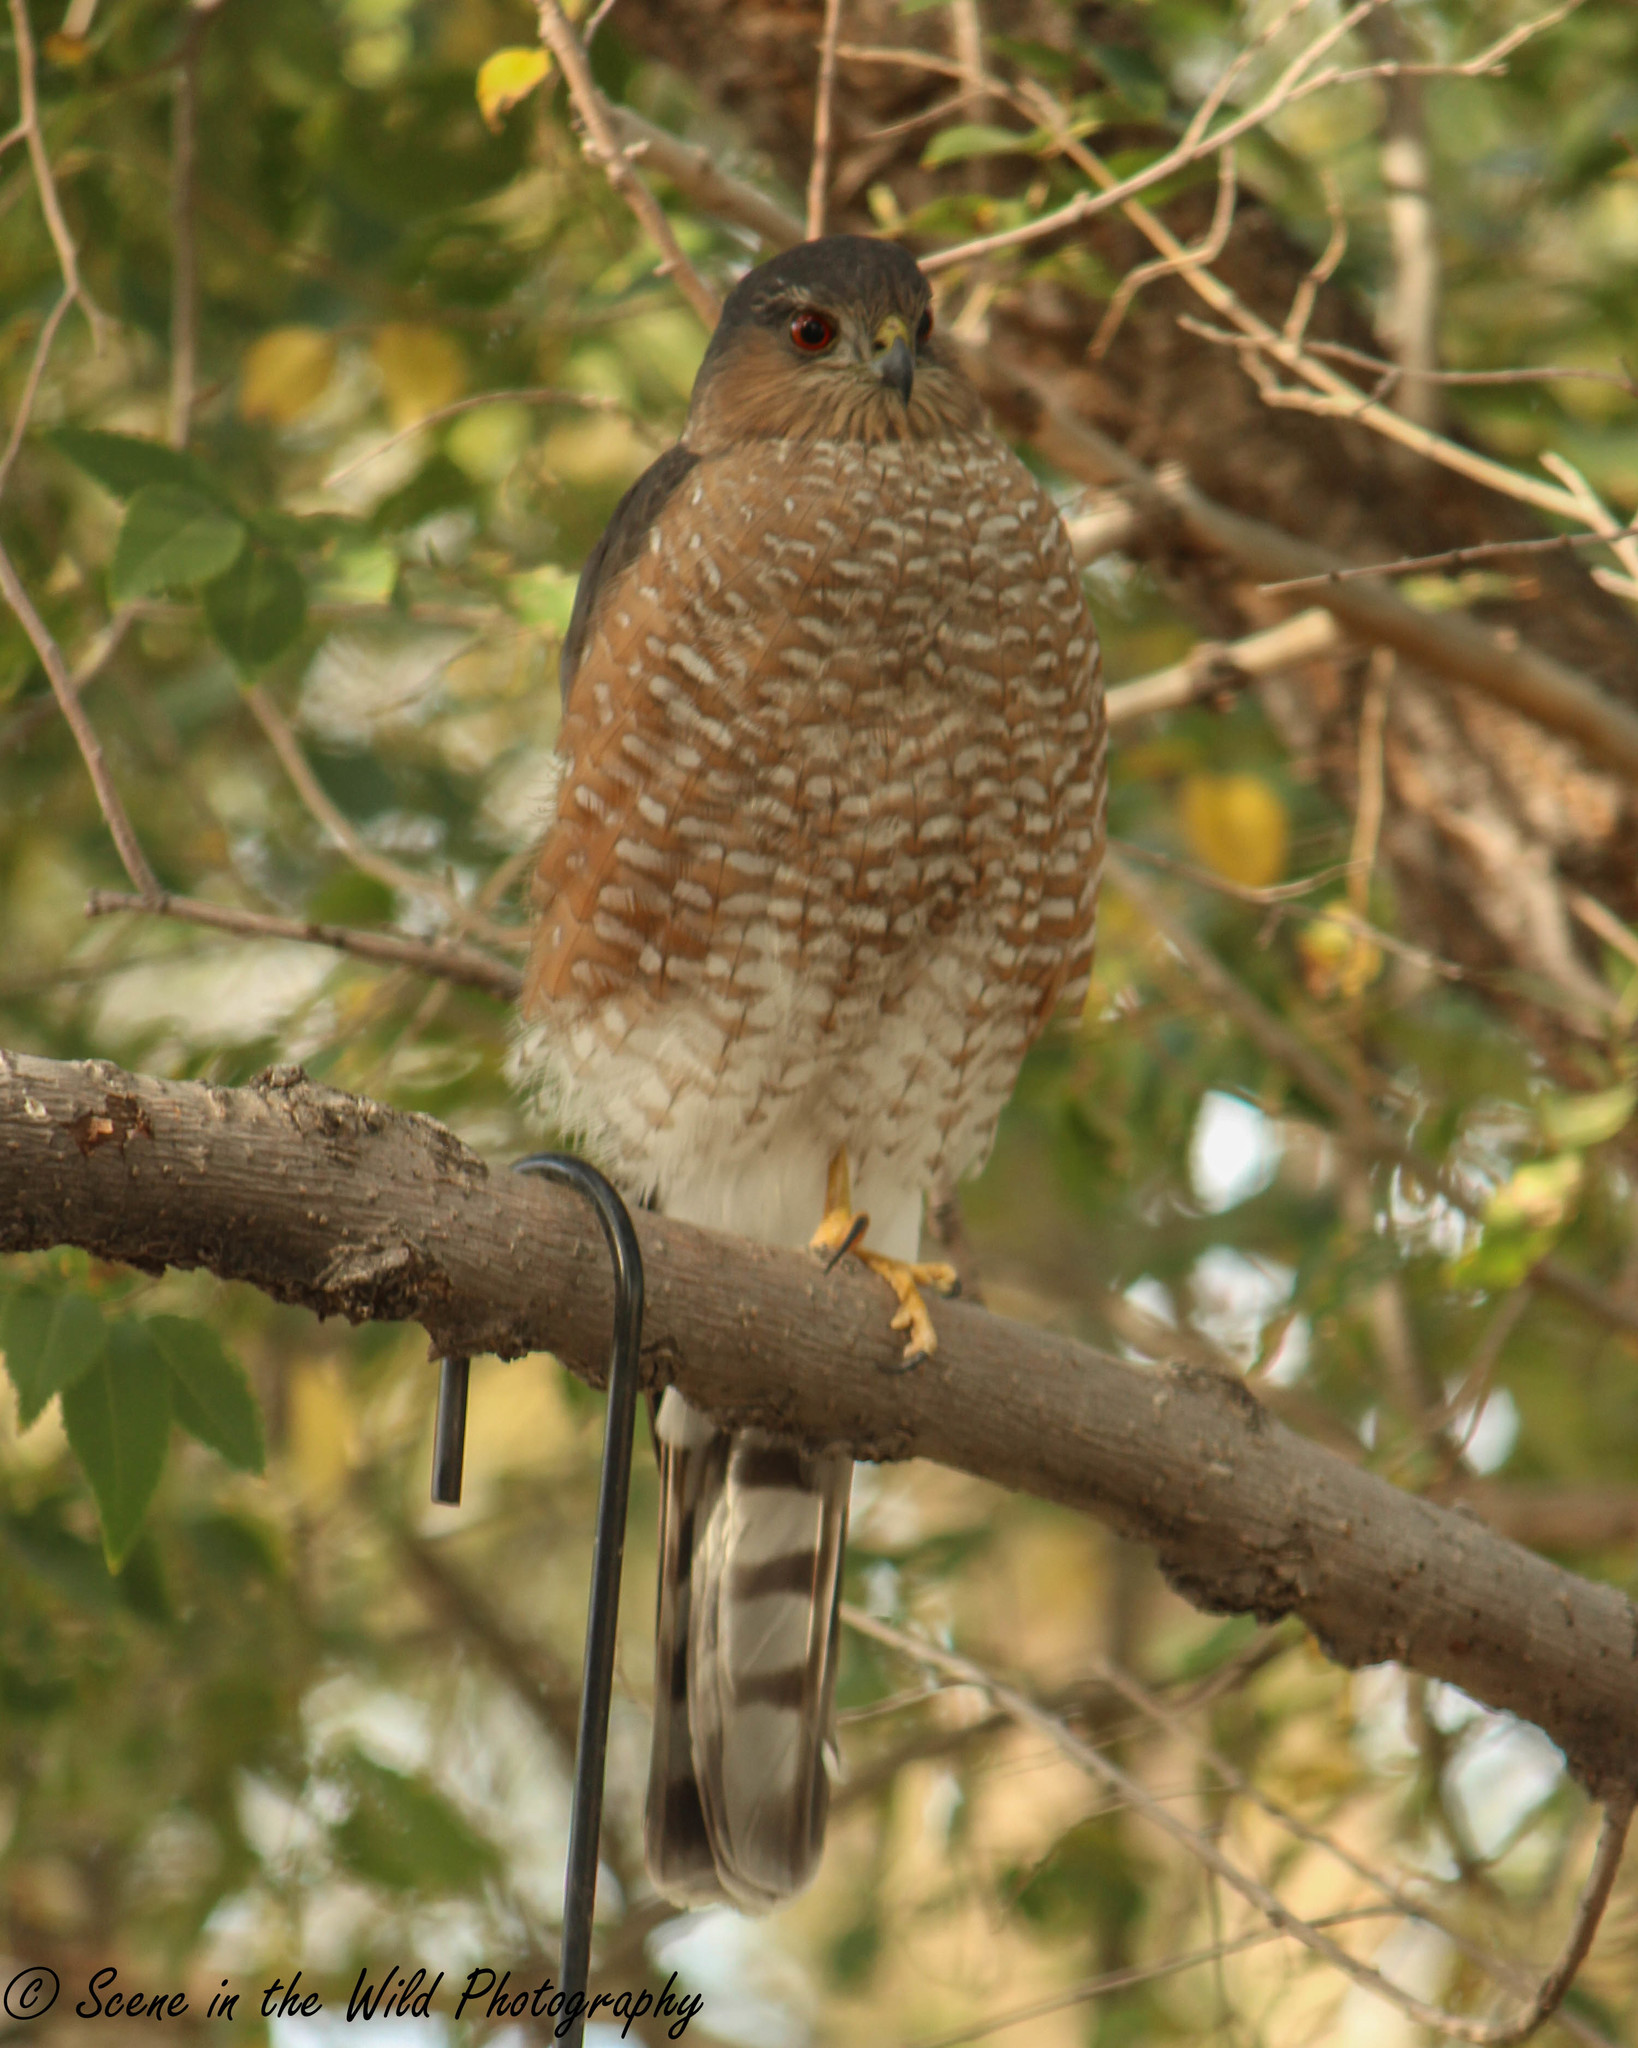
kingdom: Animalia
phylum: Chordata
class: Aves
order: Accipitriformes
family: Accipitridae
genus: Accipiter
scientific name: Accipiter striatus
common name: Sharp-shinned hawk
